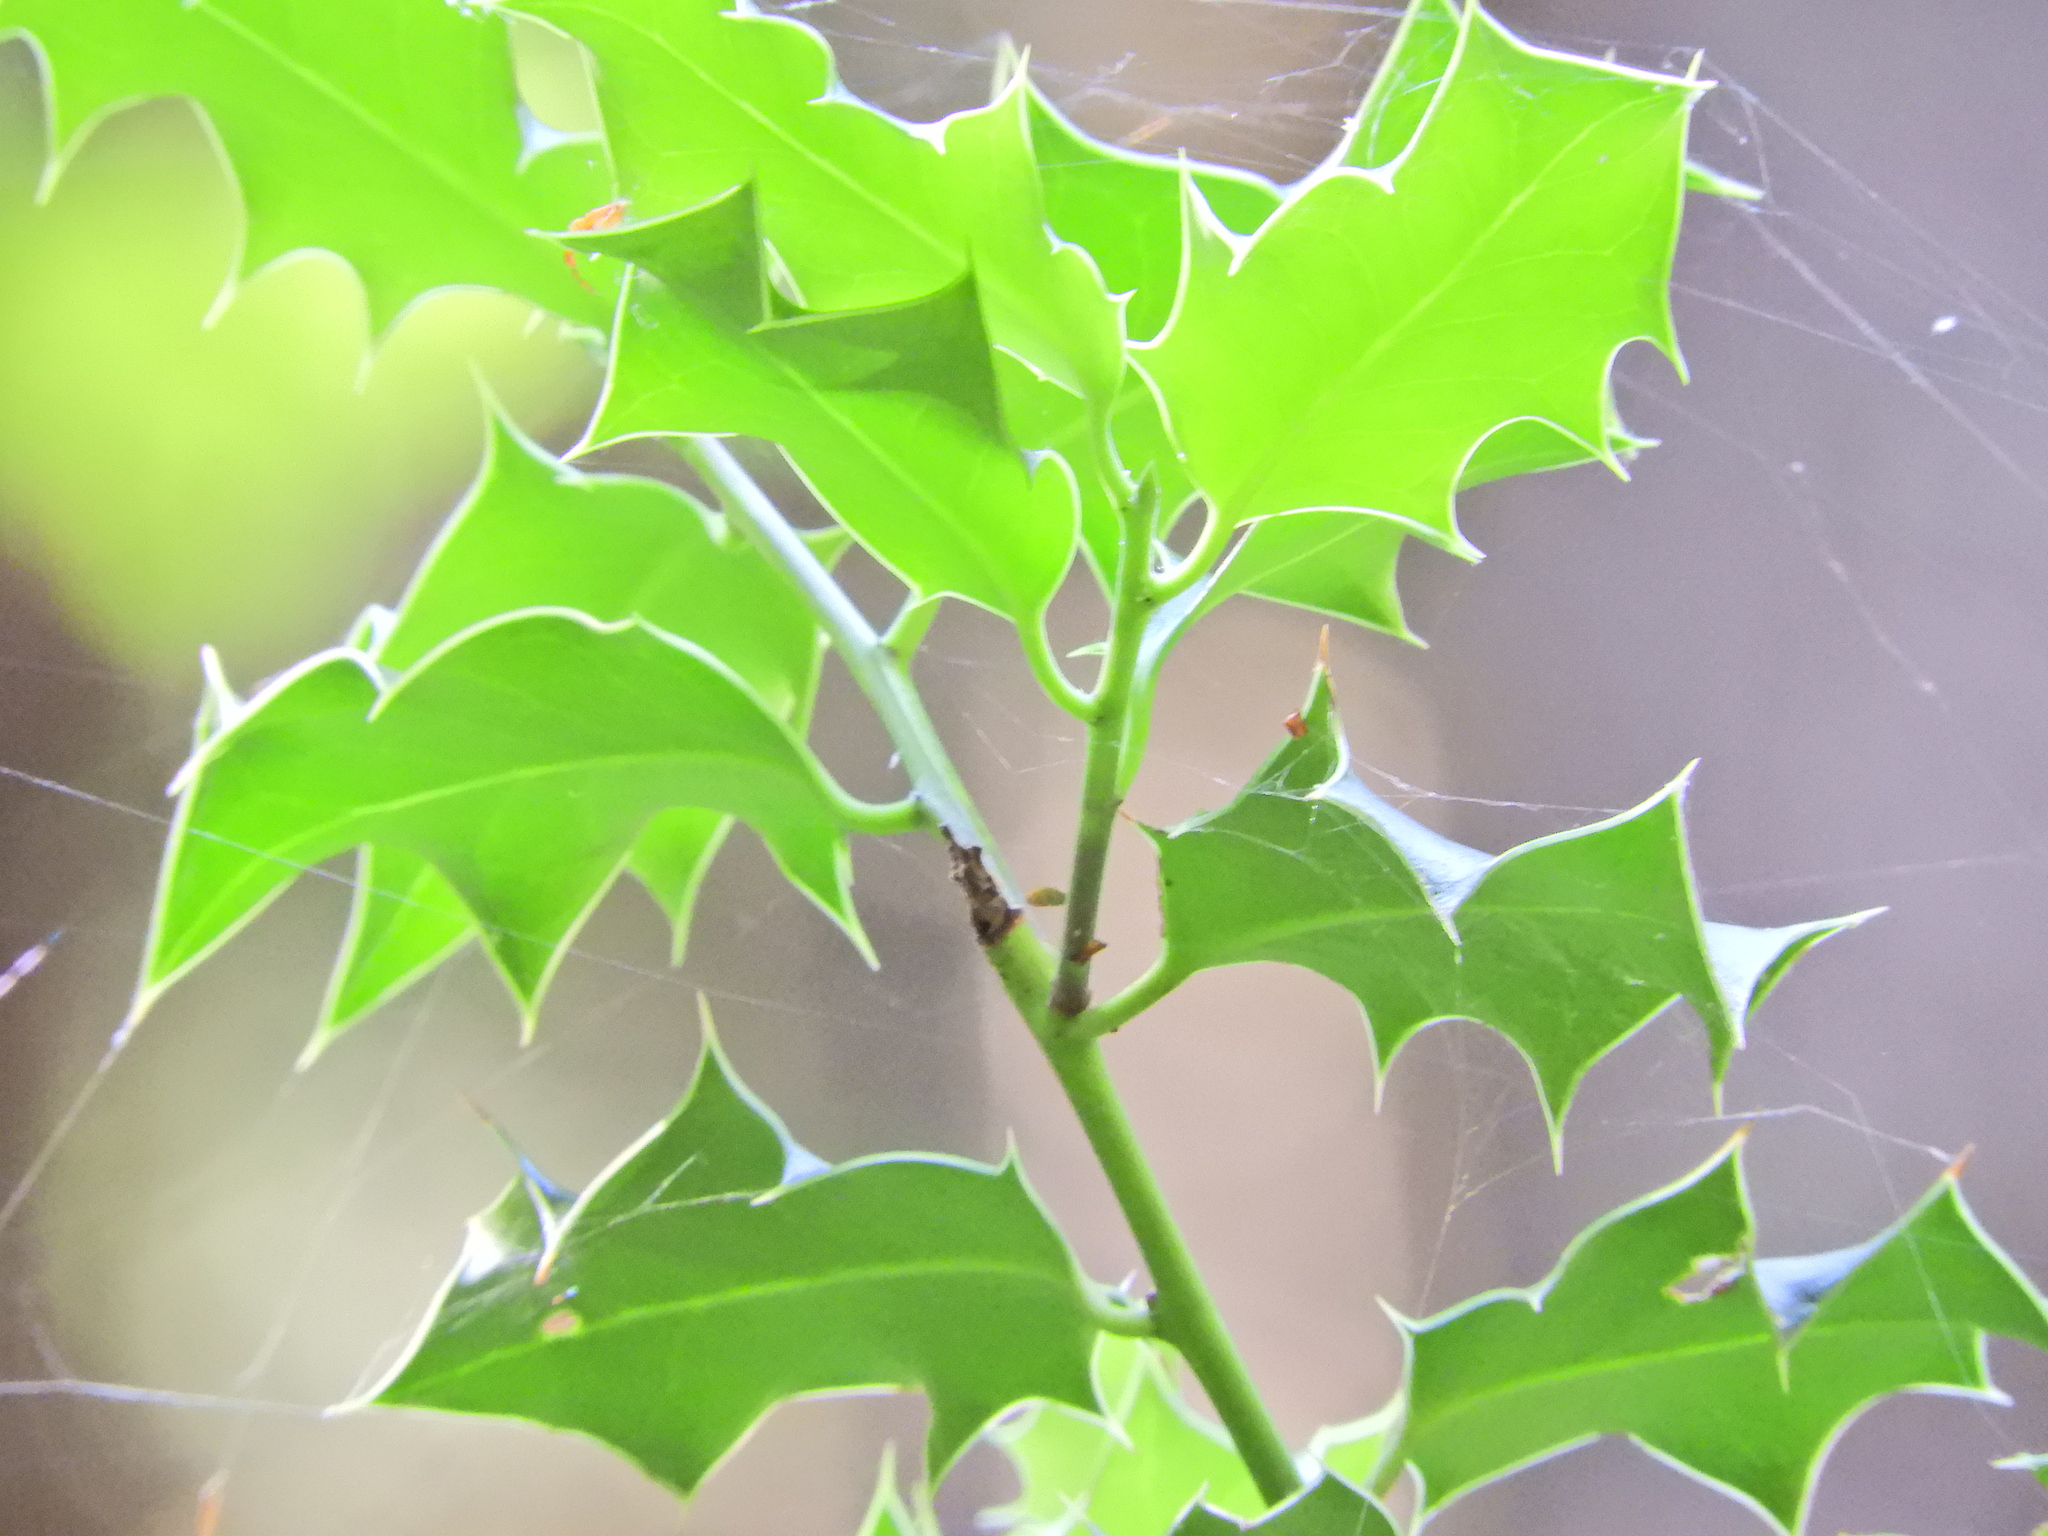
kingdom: Plantae
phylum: Tracheophyta
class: Magnoliopsida
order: Aquifoliales
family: Aquifoliaceae
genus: Ilex
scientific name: Ilex aquifolium
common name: English holly
